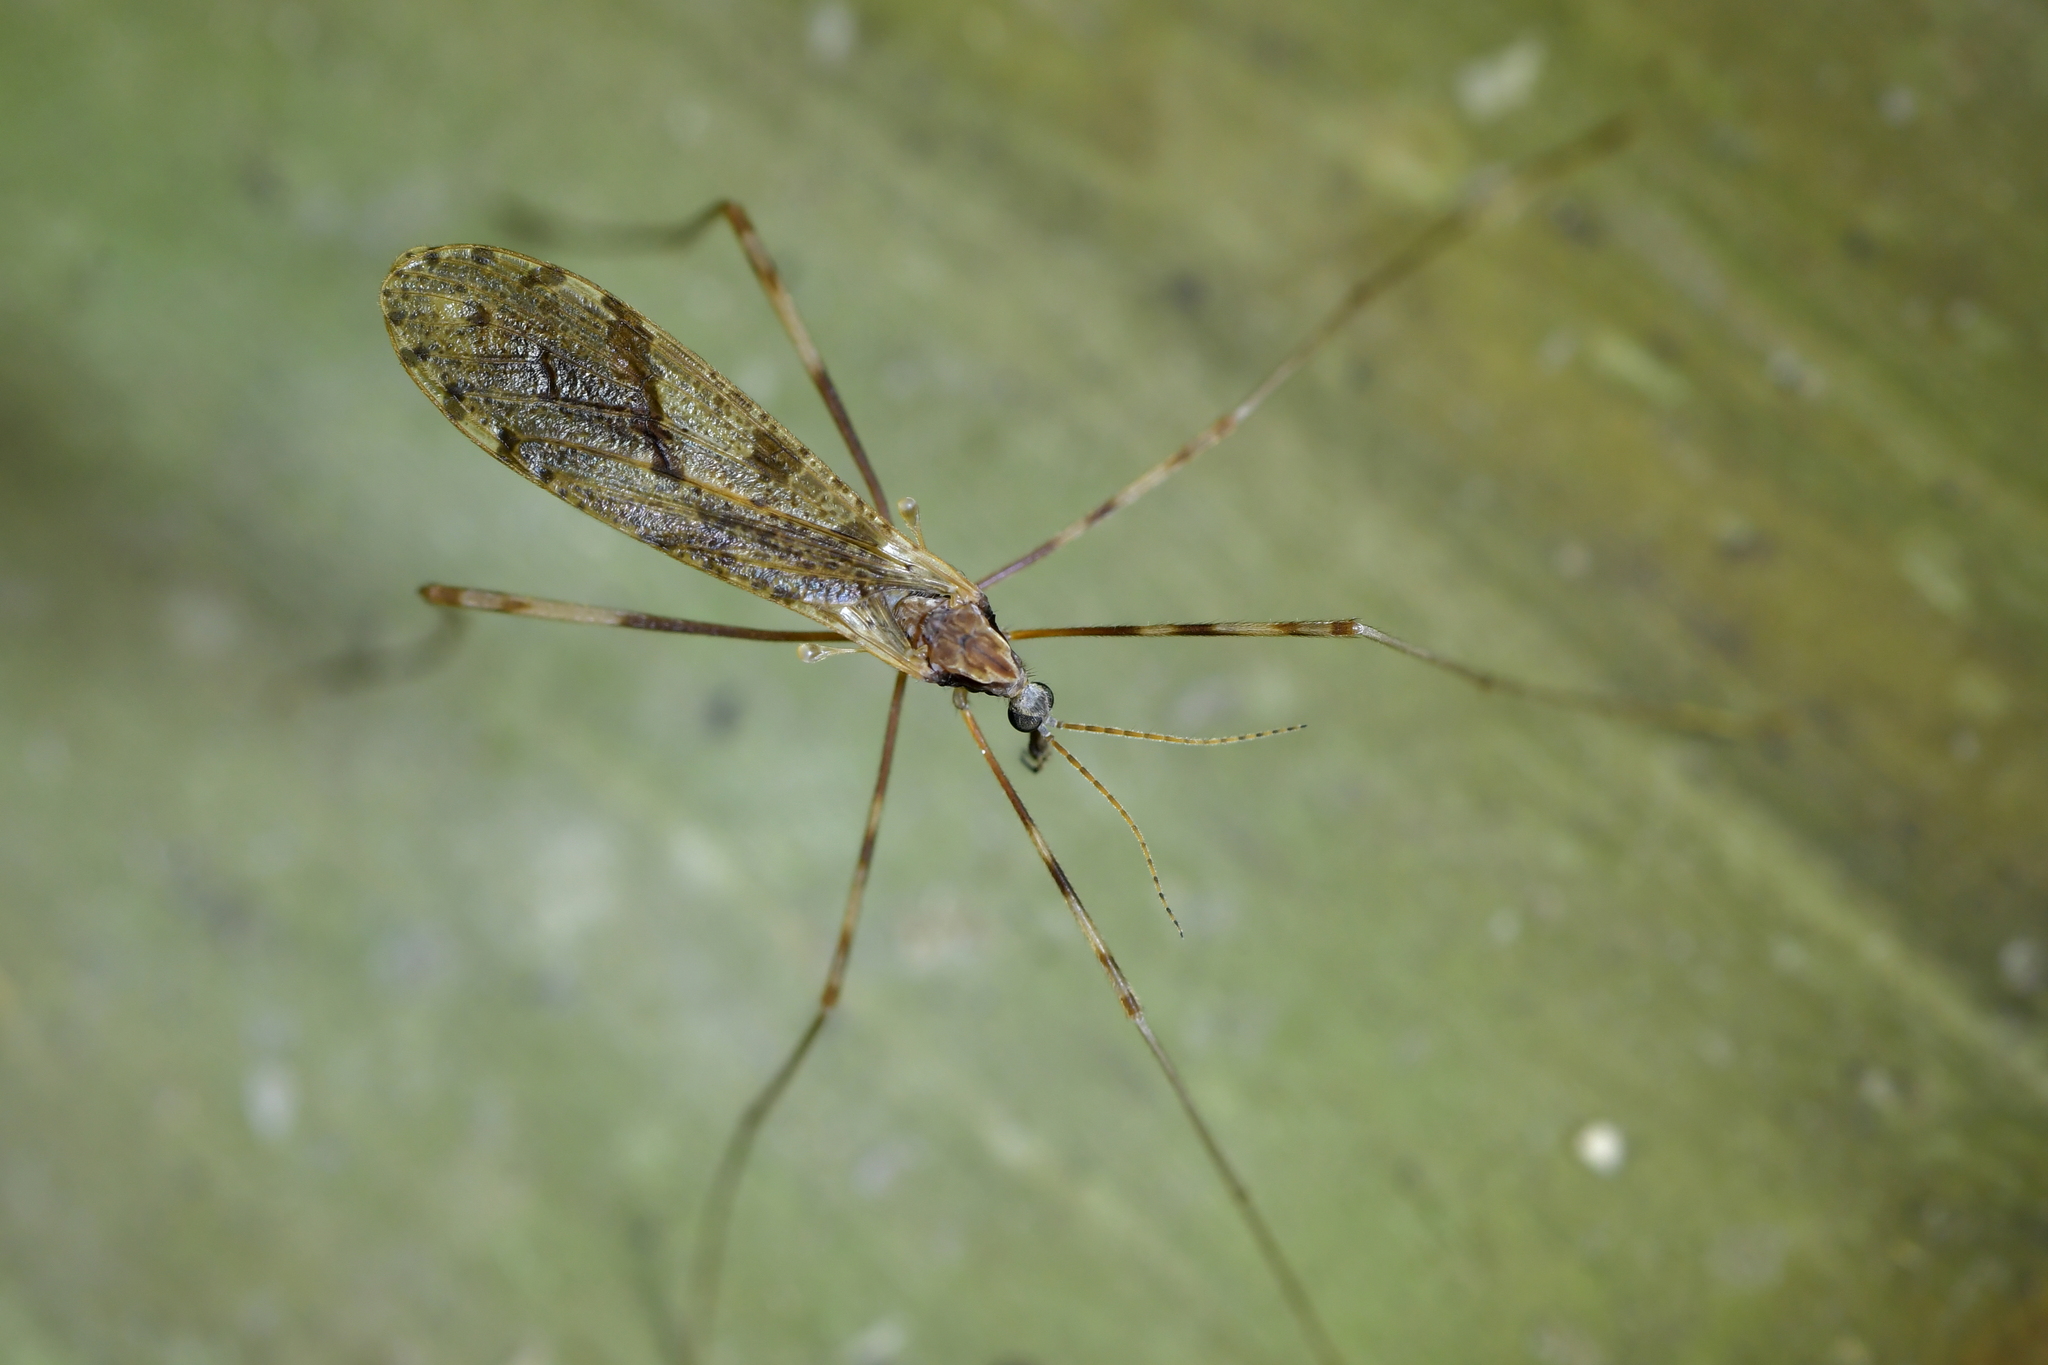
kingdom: Animalia
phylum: Arthropoda
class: Insecta
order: Diptera
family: Limoniidae
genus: Rhamphophila
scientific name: Rhamphophila sinistra
